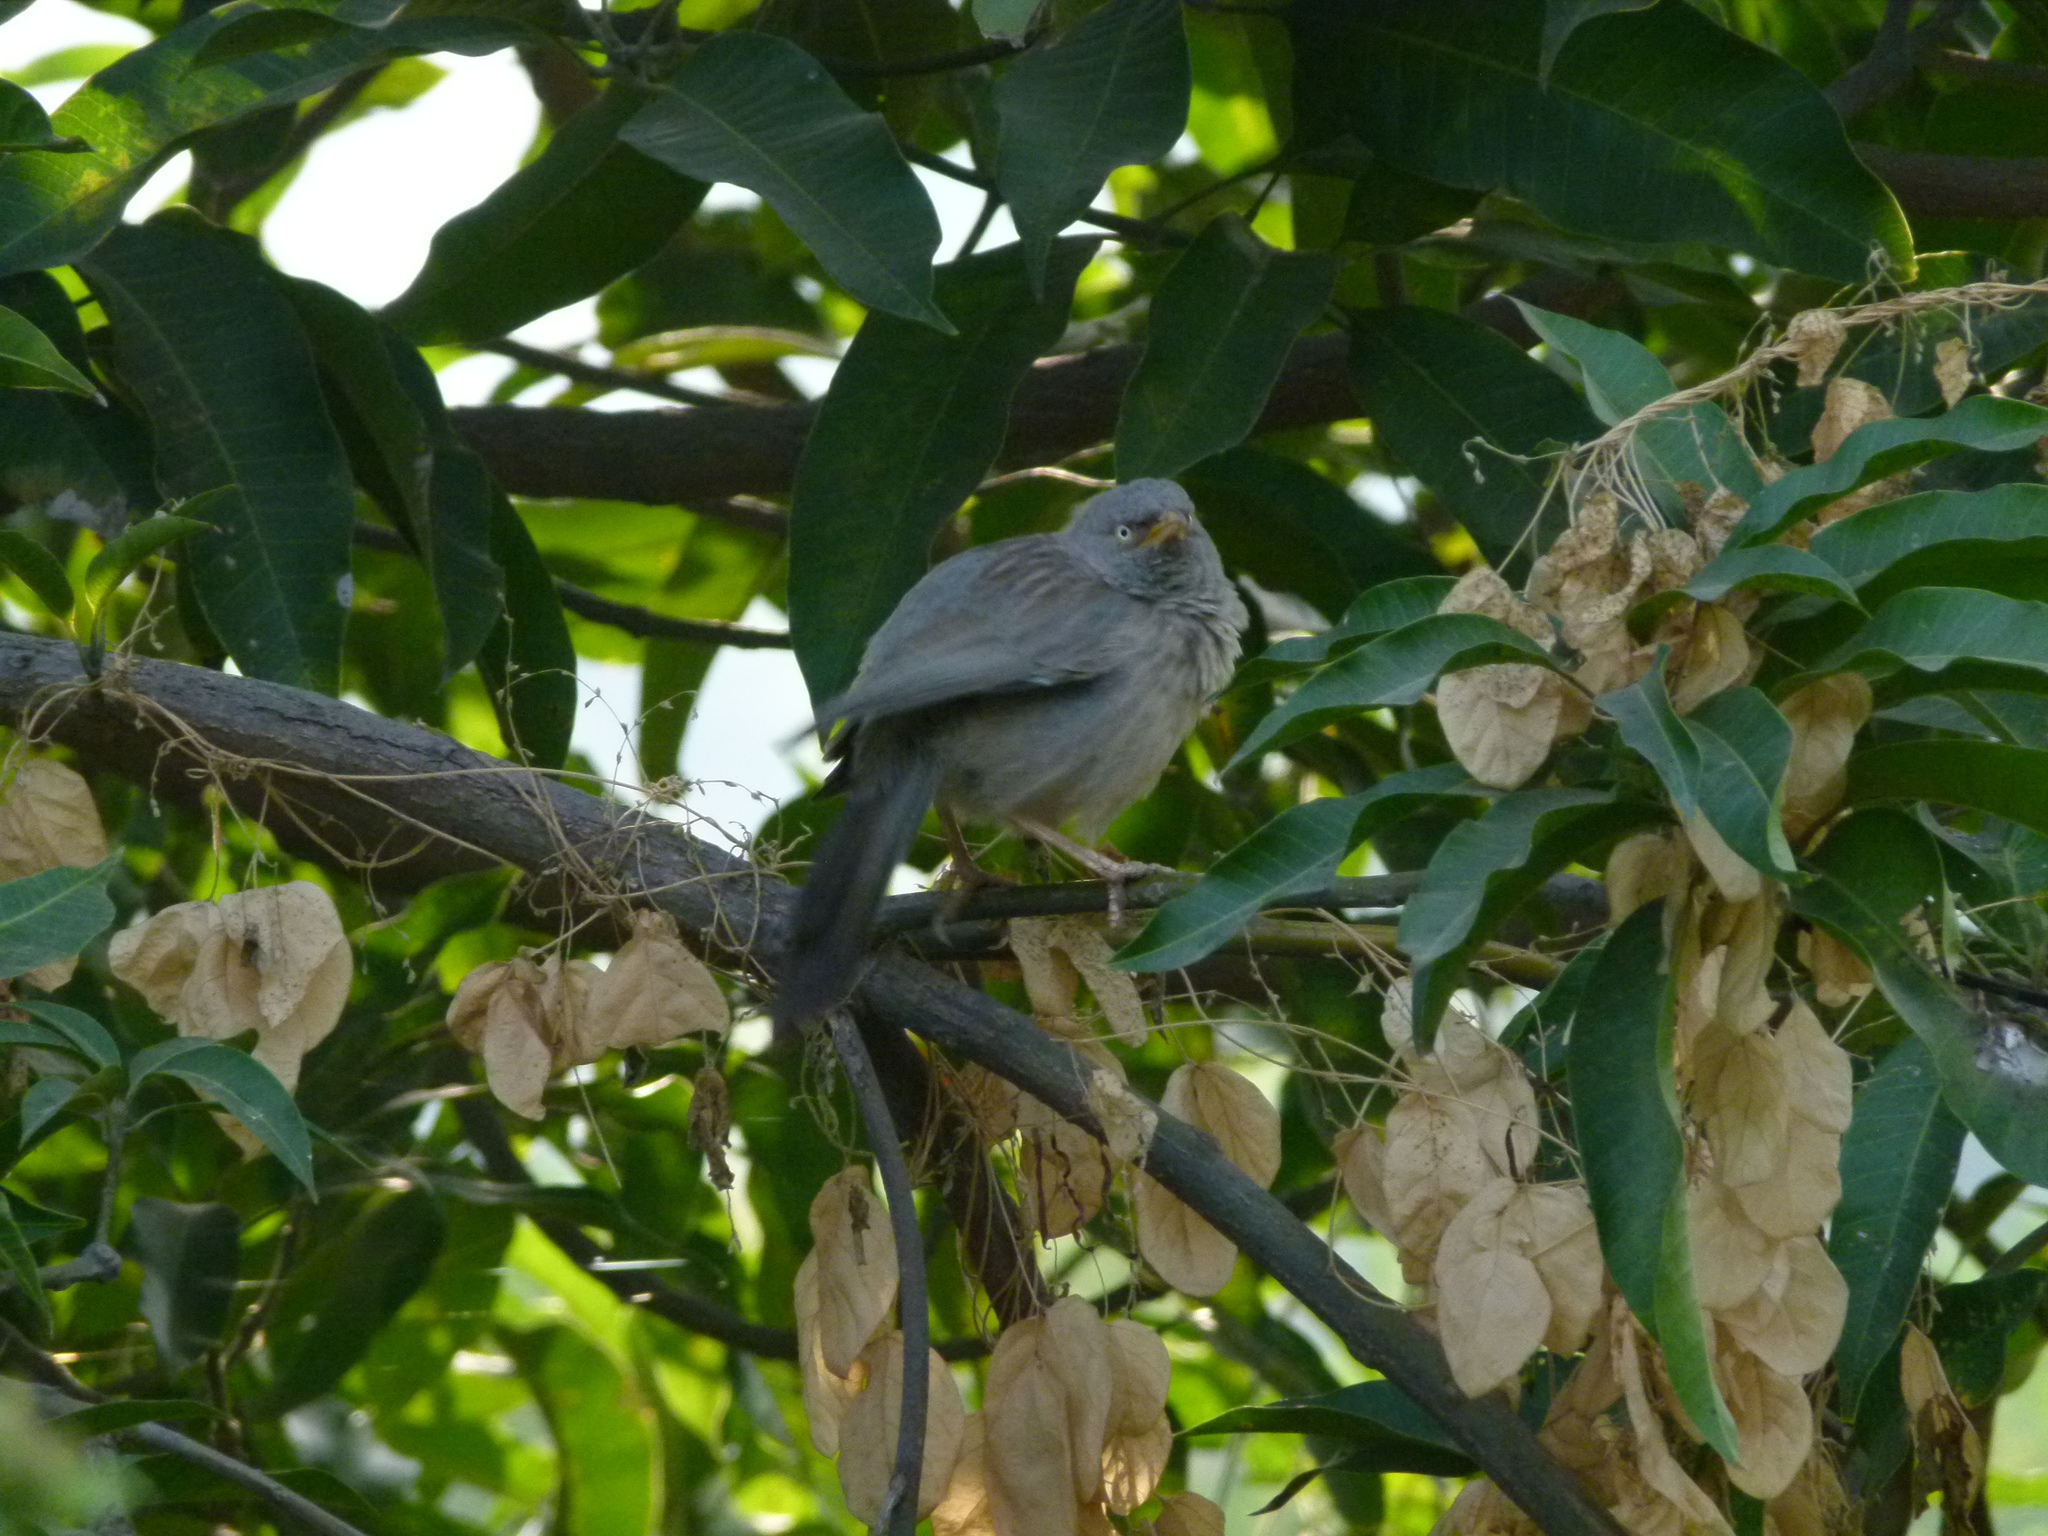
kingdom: Animalia
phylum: Chordata
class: Aves
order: Passeriformes
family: Leiothrichidae
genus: Turdoides
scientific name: Turdoides striata
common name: Jungle babbler
